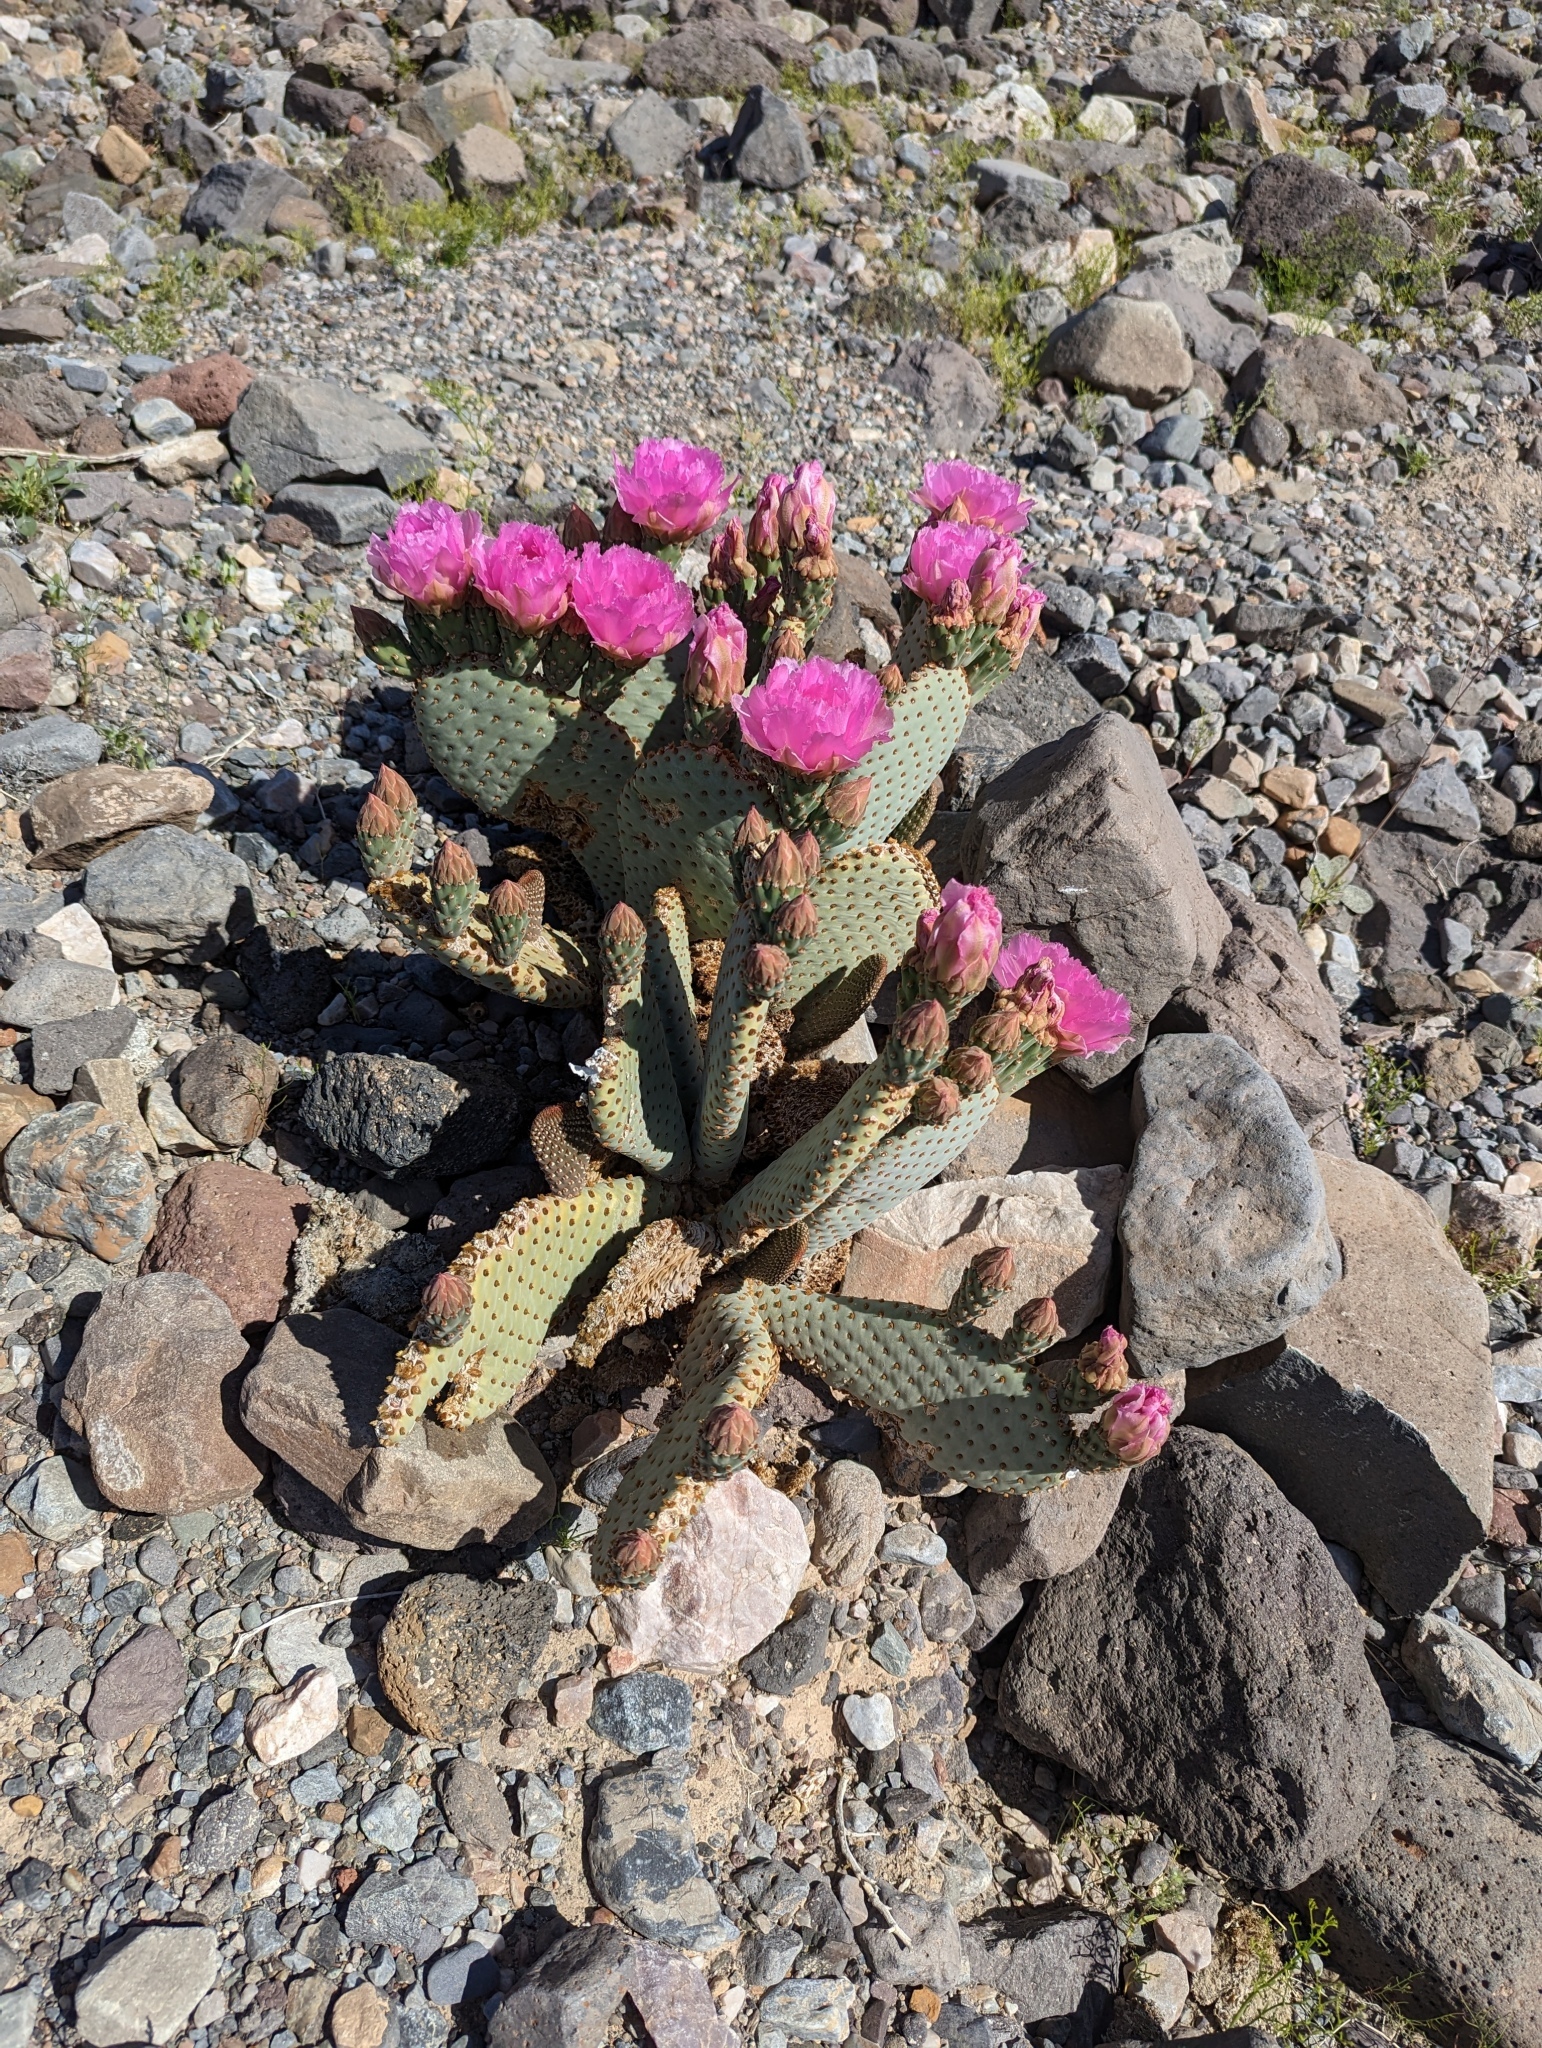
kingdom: Plantae
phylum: Tracheophyta
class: Magnoliopsida
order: Caryophyllales
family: Cactaceae
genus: Opuntia
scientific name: Opuntia basilaris
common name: Beavertail prickly-pear
